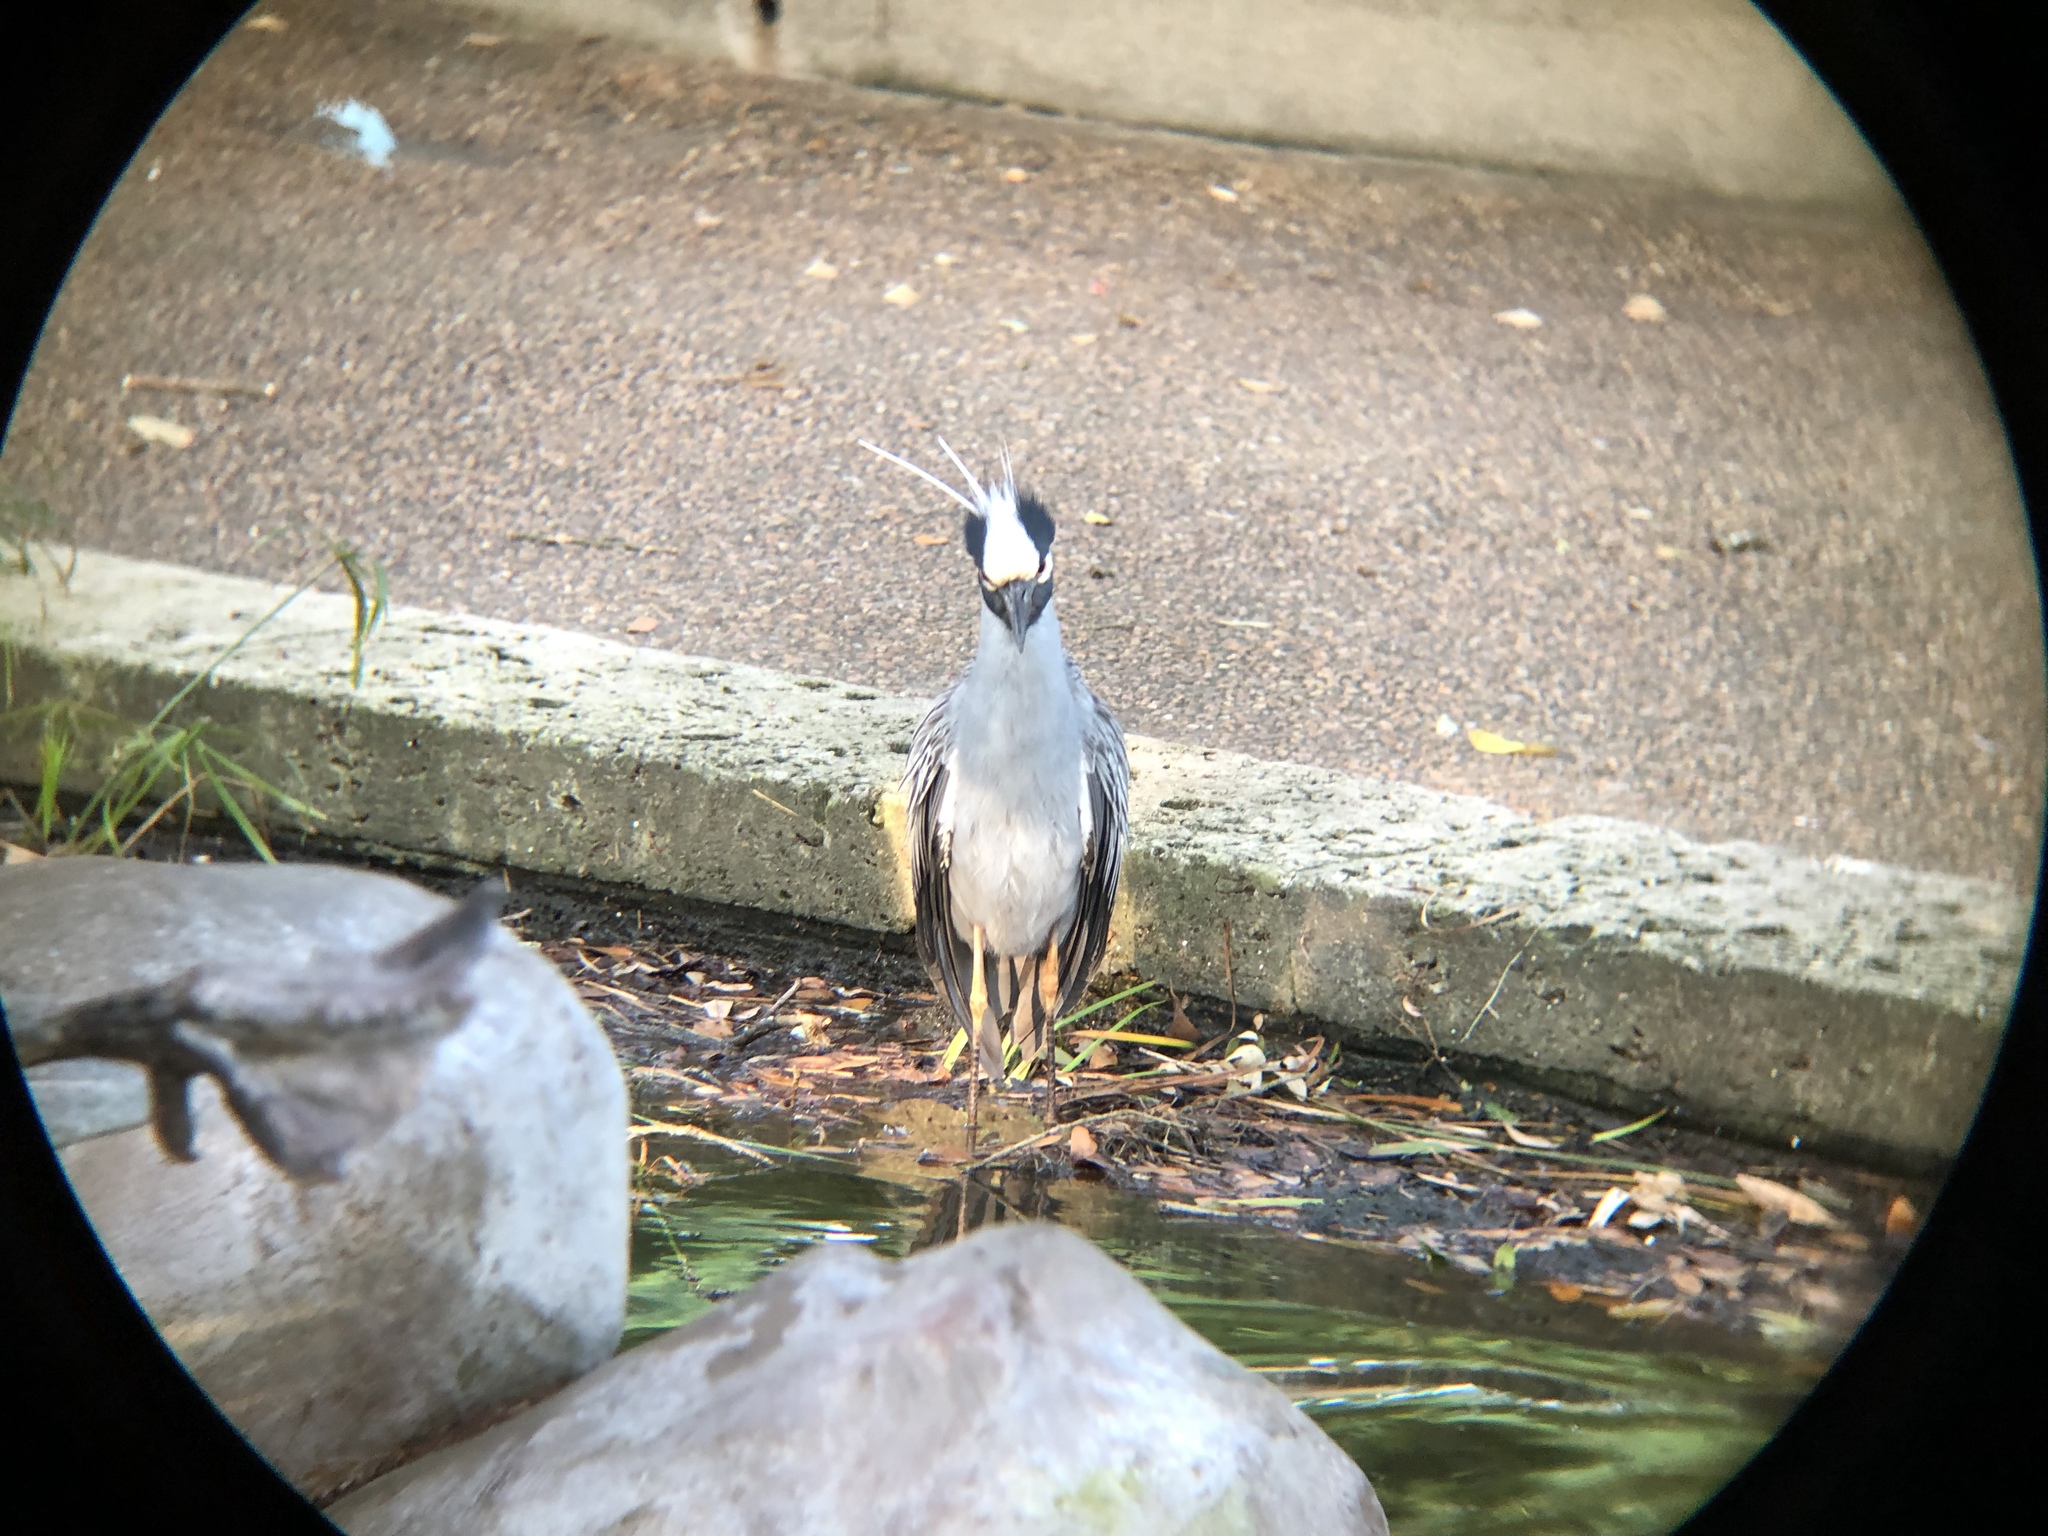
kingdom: Animalia
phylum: Chordata
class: Aves
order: Pelecaniformes
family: Ardeidae
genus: Nyctanassa
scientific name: Nyctanassa violacea
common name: Yellow-crowned night heron
